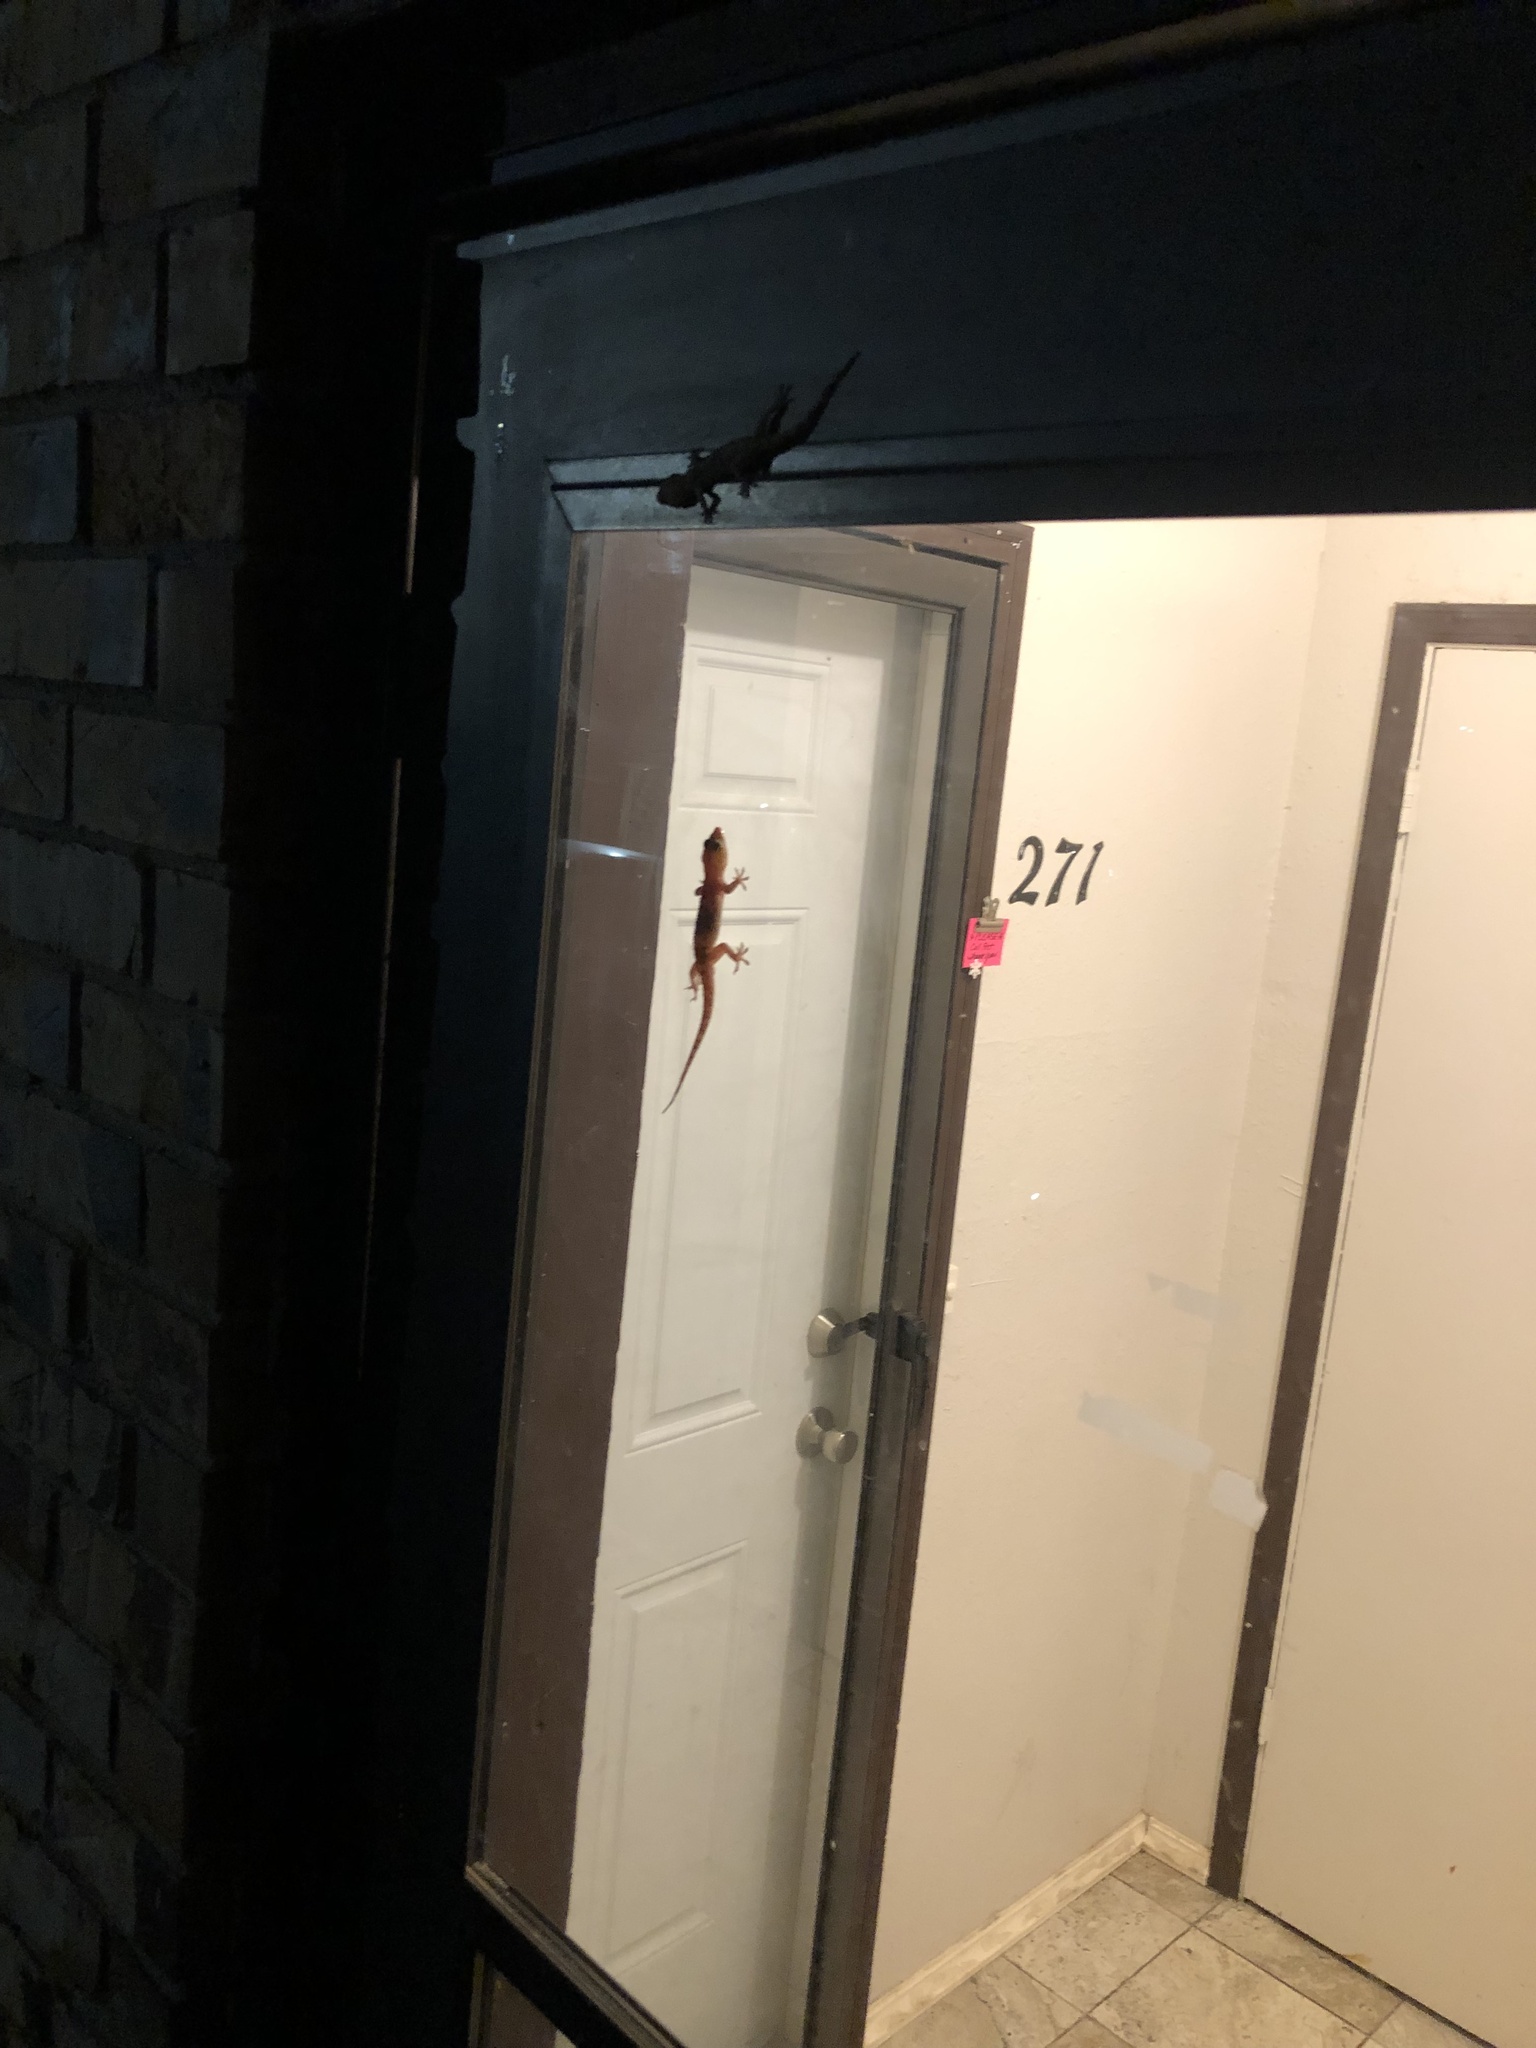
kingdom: Animalia
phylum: Chordata
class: Squamata
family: Gekkonidae
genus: Hemidactylus
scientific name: Hemidactylus turcicus
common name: Turkish gecko
